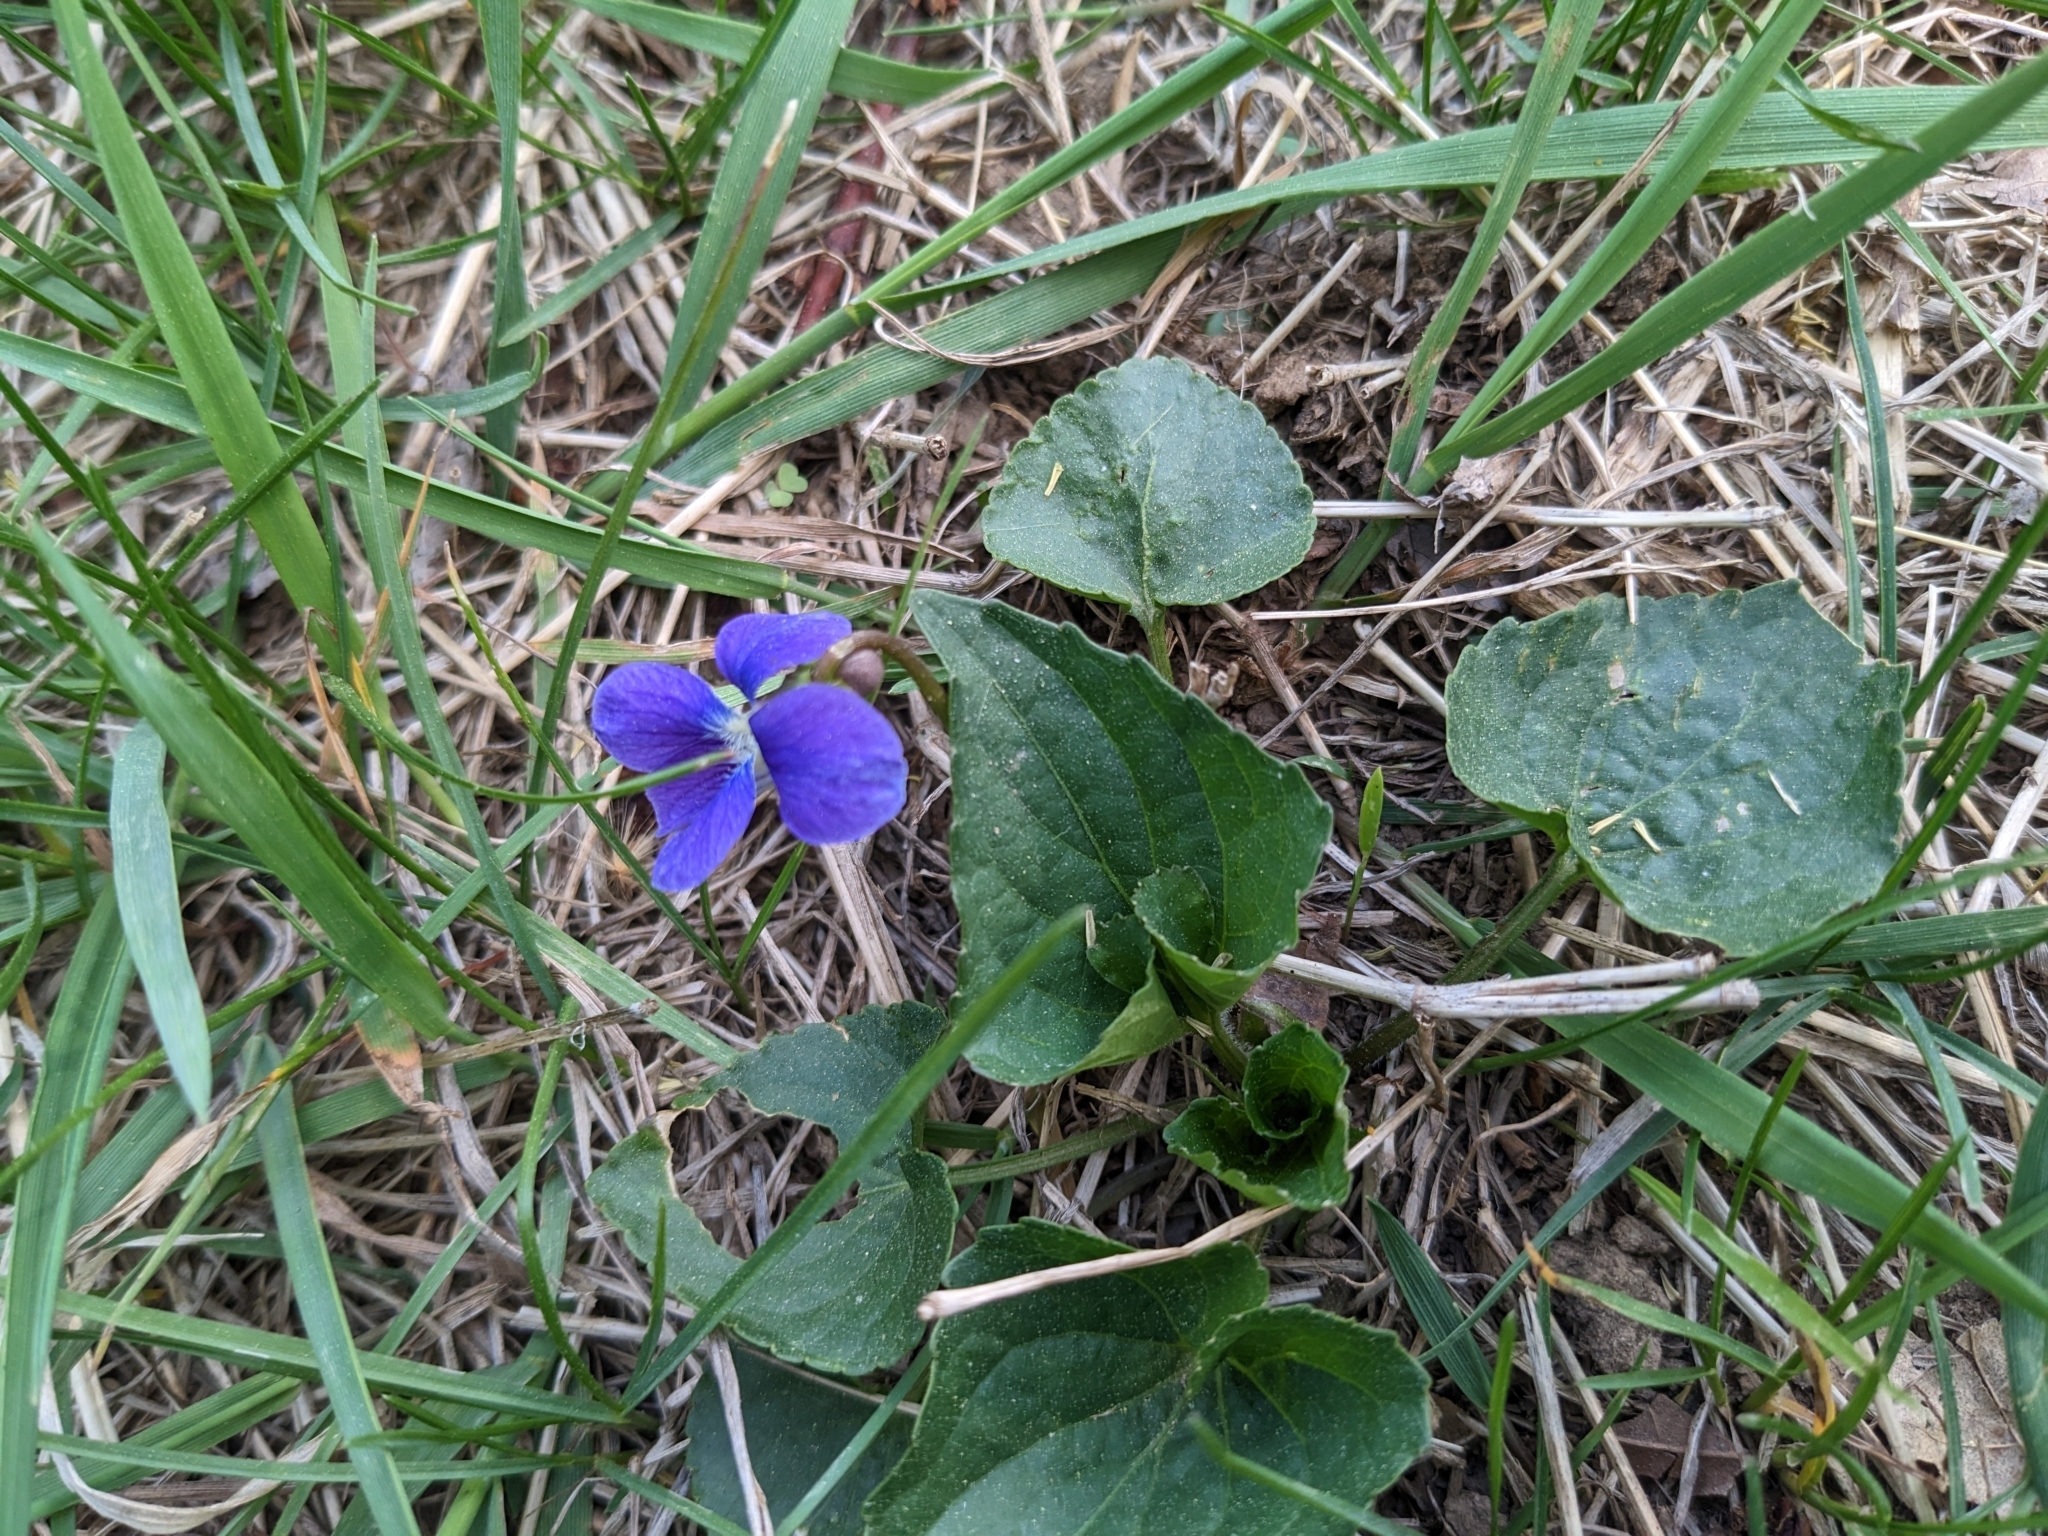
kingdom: Plantae
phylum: Tracheophyta
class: Magnoliopsida
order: Malpighiales
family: Violaceae
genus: Viola
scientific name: Viola sororia
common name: Dooryard violet
